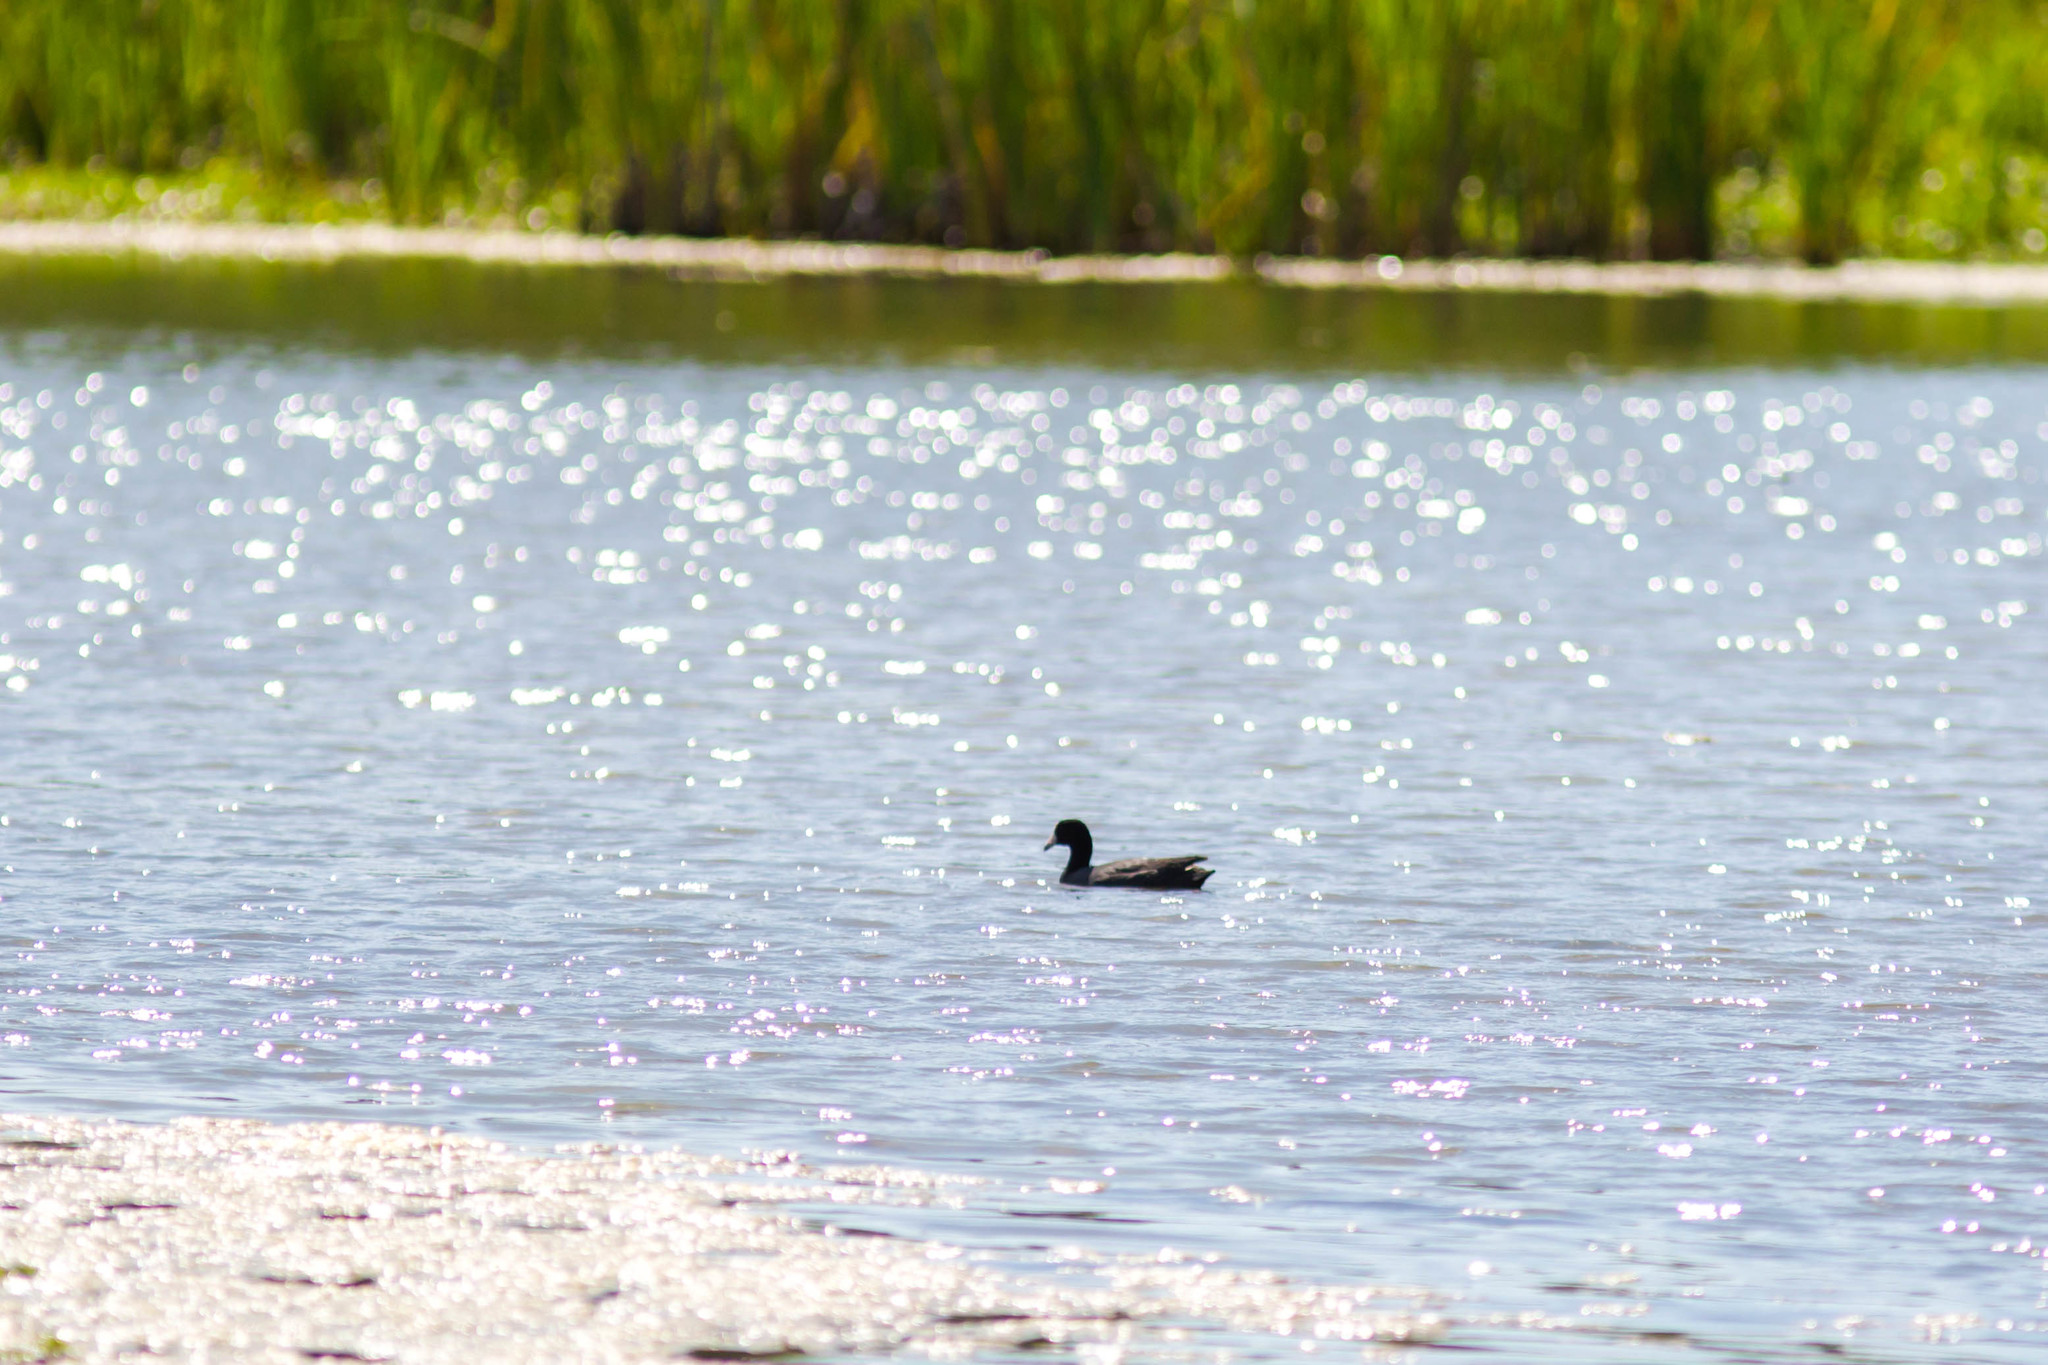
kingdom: Animalia
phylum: Chordata
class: Aves
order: Gruiformes
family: Rallidae
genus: Fulica
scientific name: Fulica americana
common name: American coot
